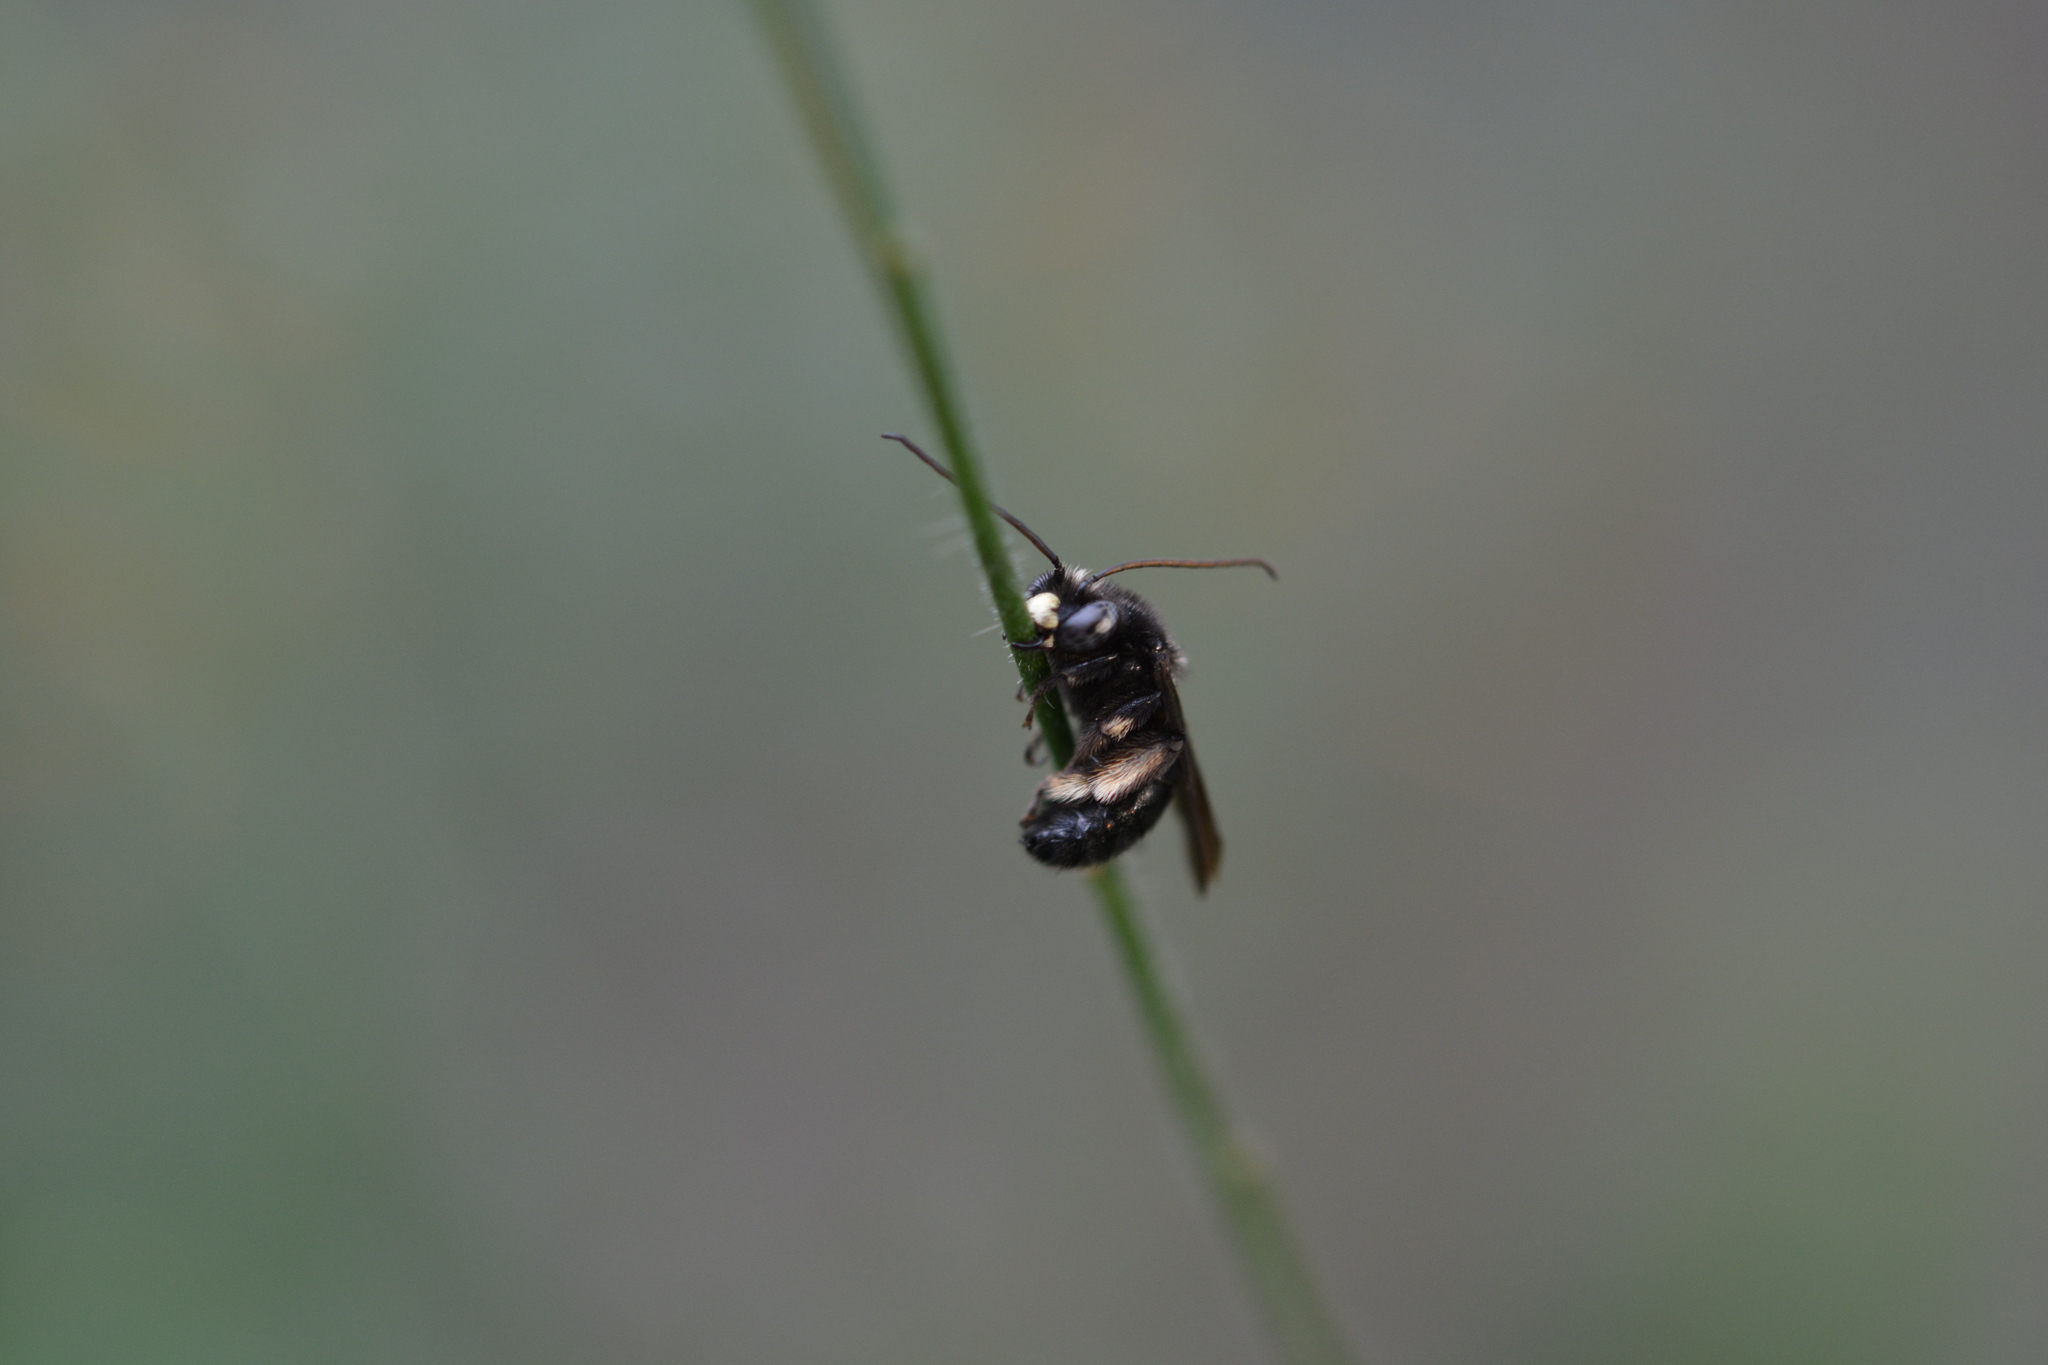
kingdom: Animalia
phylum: Arthropoda
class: Insecta
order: Hymenoptera
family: Apidae
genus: Melissodes
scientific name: Melissodes bimaculatus
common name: Two-spotted long-horned bee
